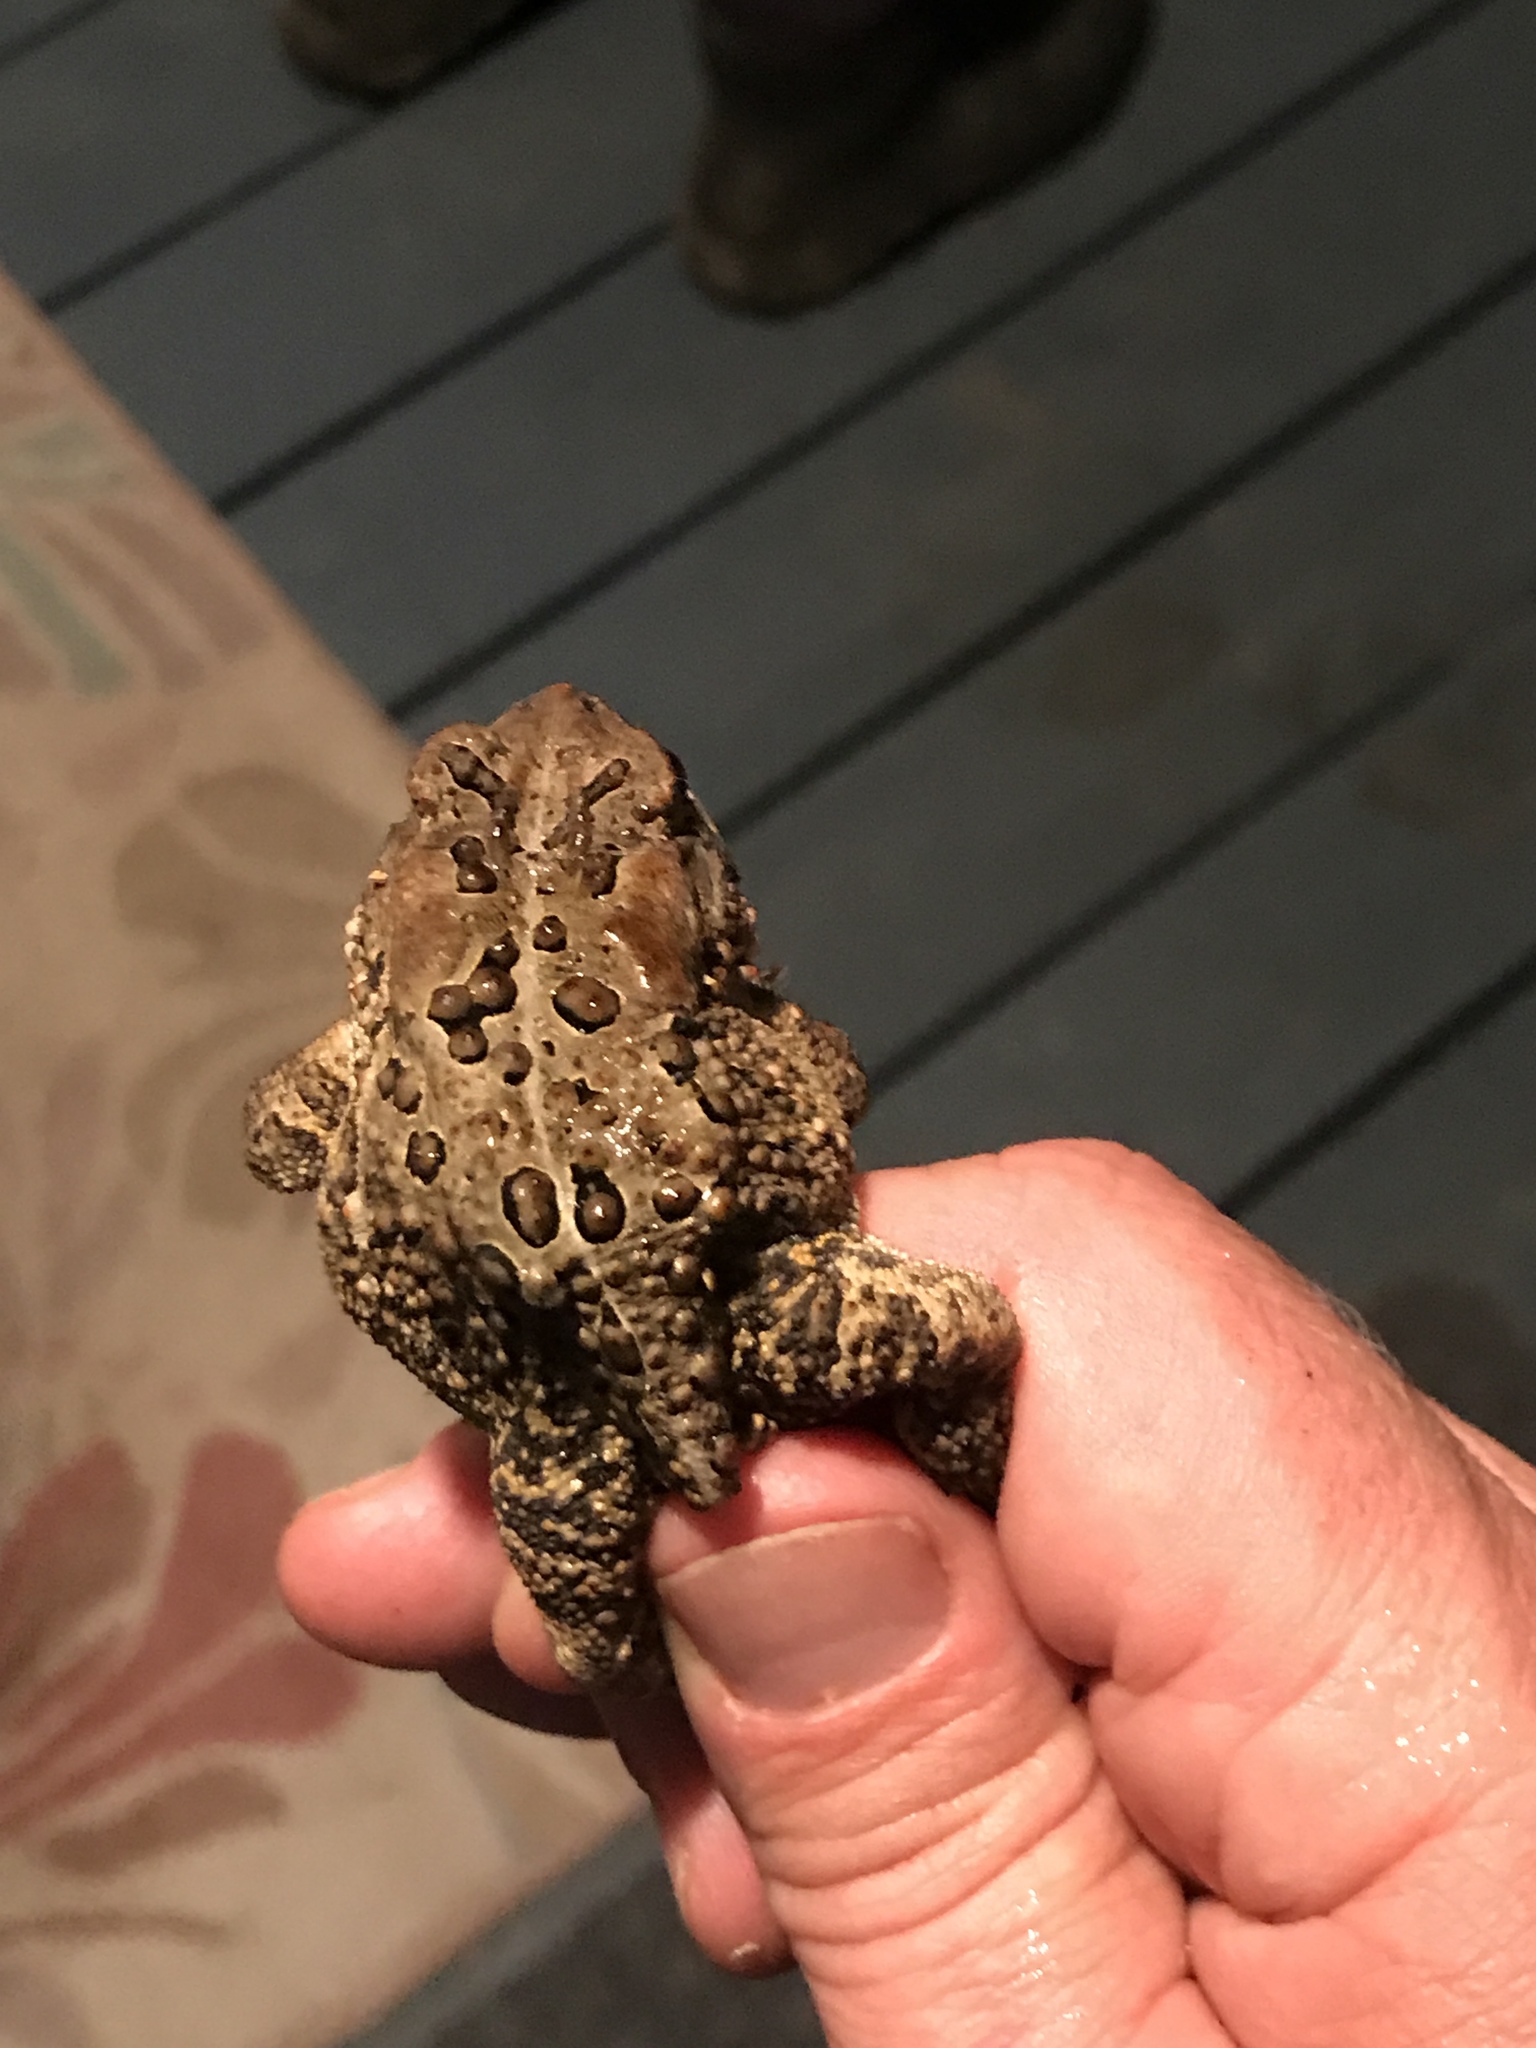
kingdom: Animalia
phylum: Chordata
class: Amphibia
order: Anura
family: Bufonidae
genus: Anaxyrus
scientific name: Anaxyrus americanus
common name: American toad
